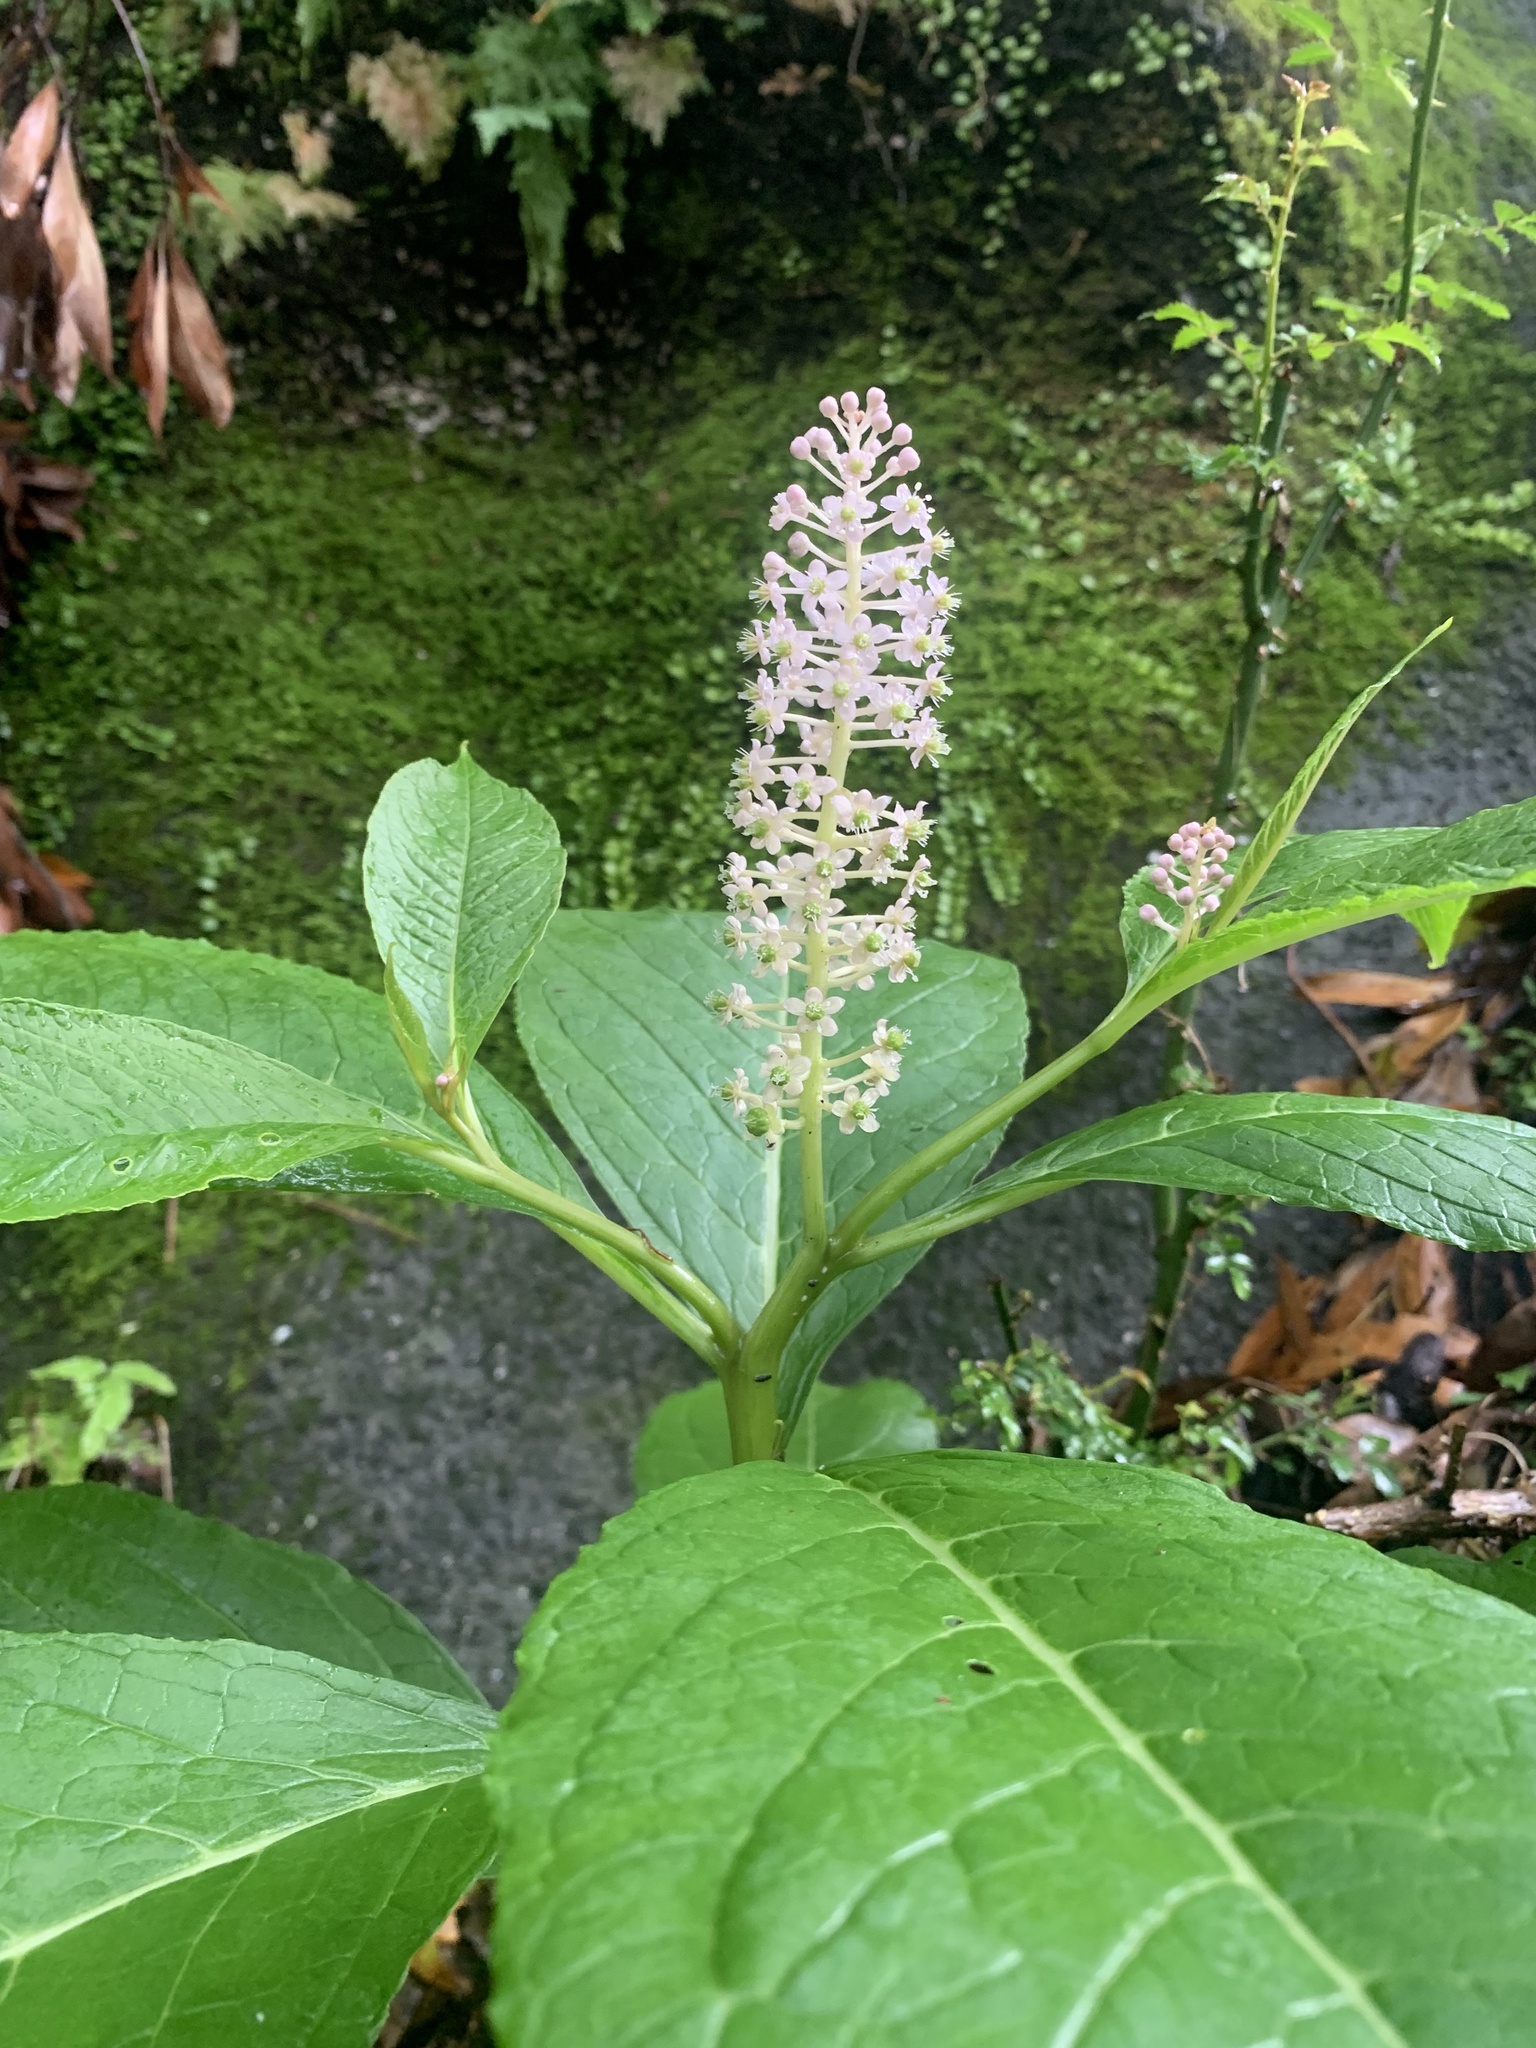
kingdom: Plantae
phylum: Tracheophyta
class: Magnoliopsida
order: Caryophyllales
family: Phytolaccaceae
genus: Phytolacca
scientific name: Phytolacca japonica
